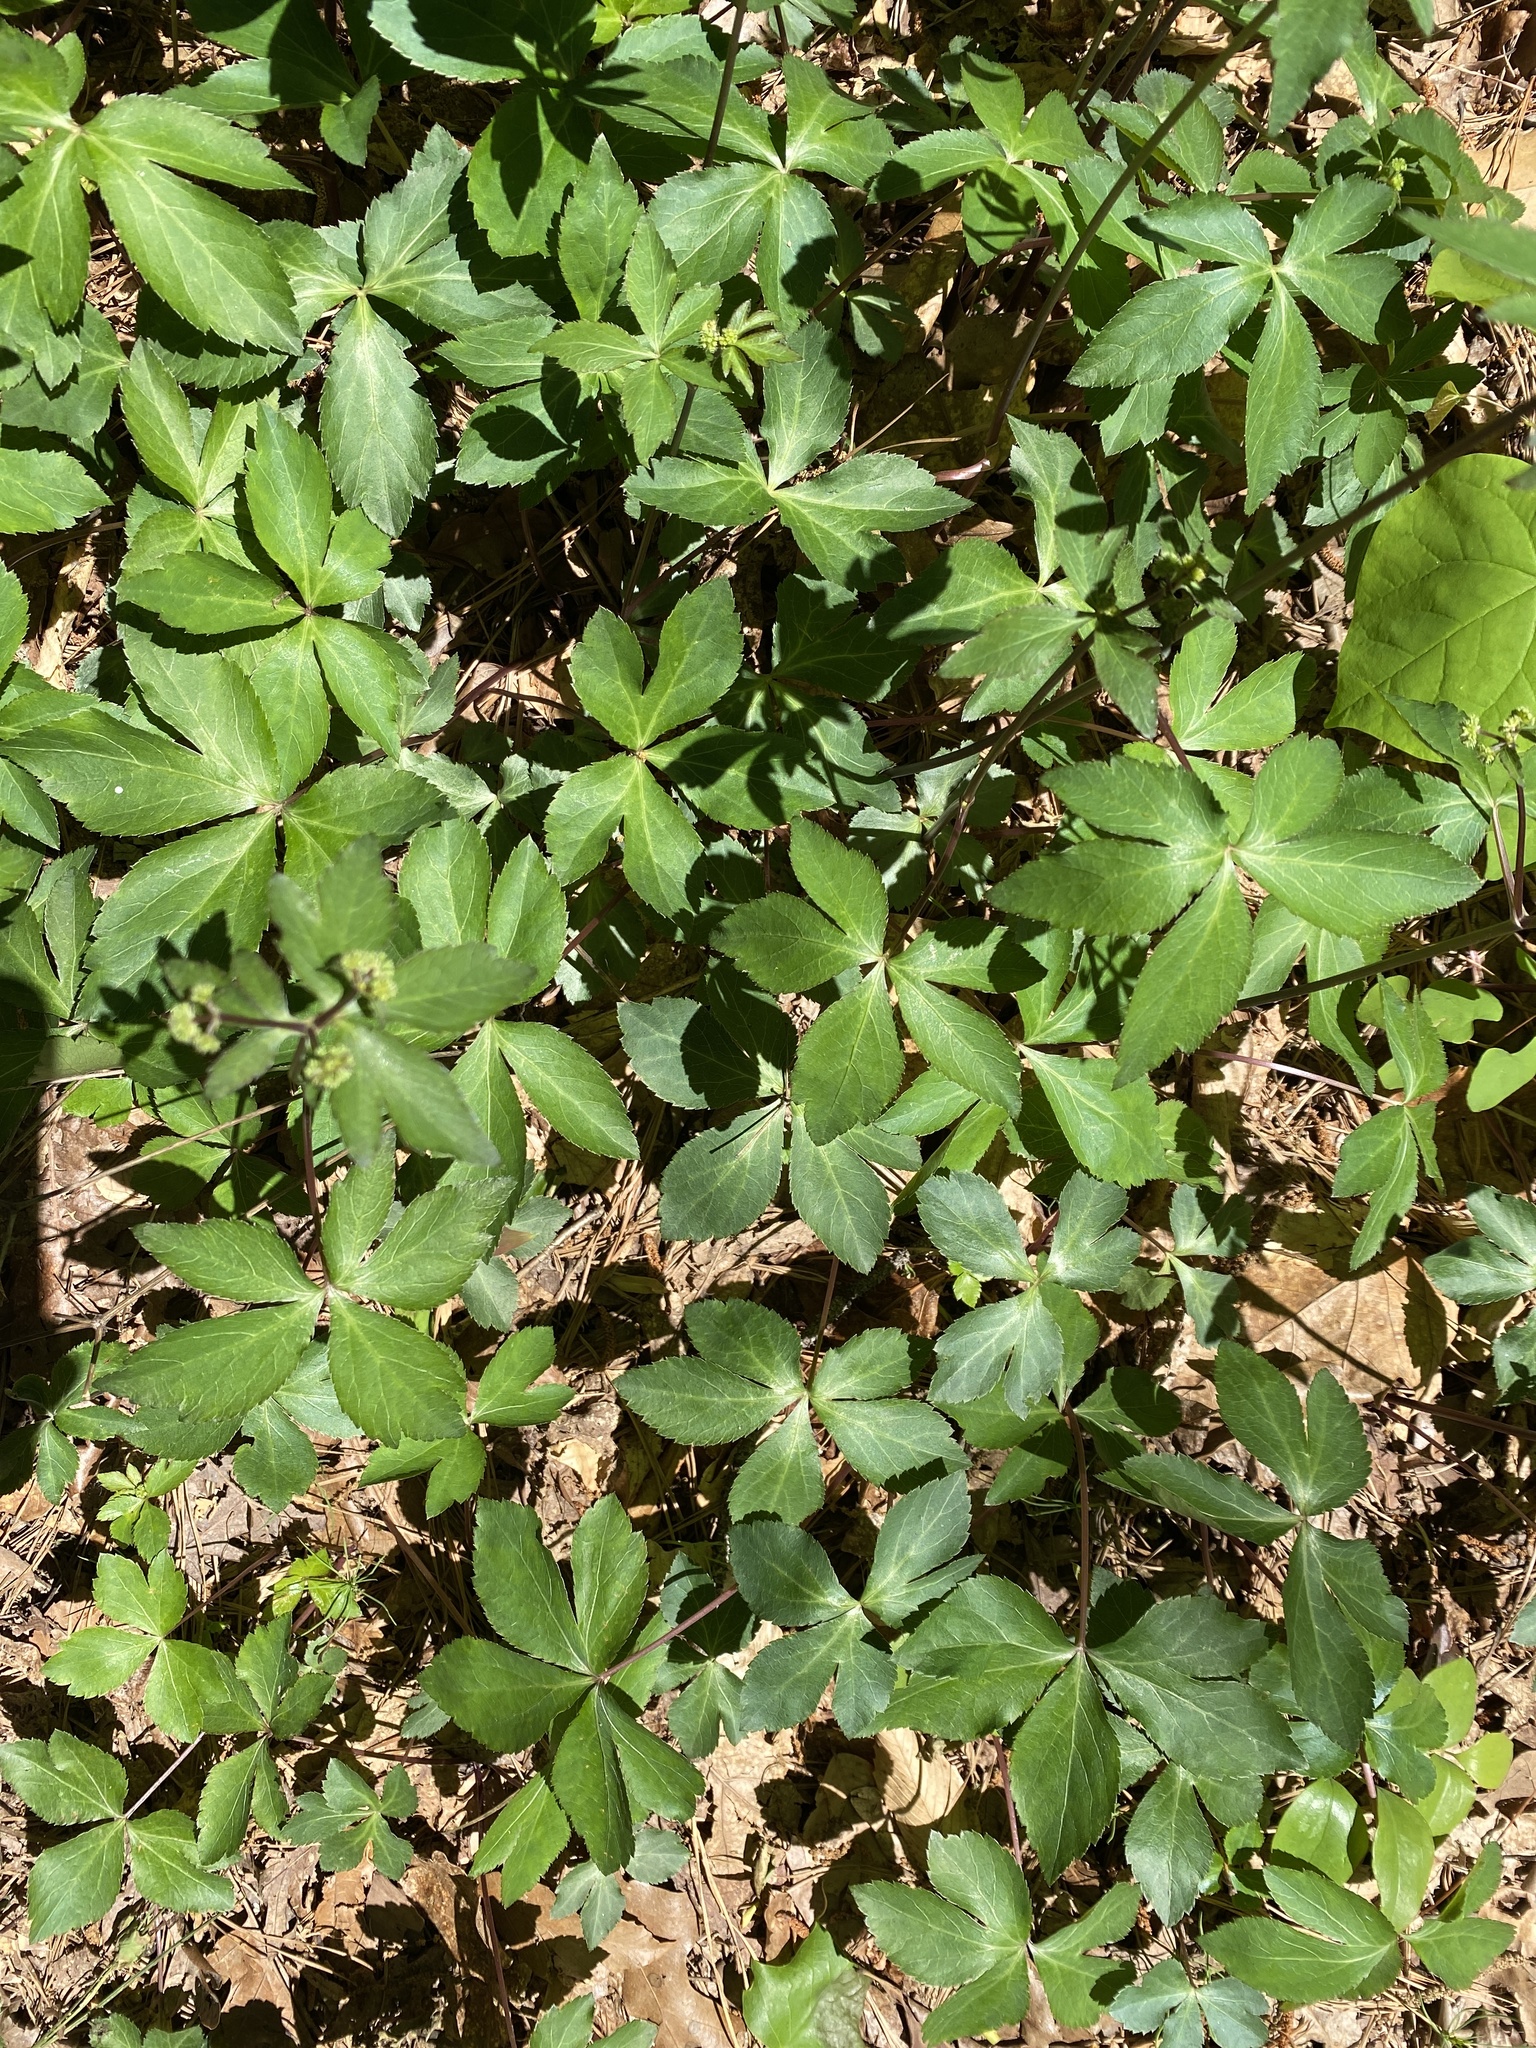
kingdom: Plantae
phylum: Tracheophyta
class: Magnoliopsida
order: Apiales
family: Apiaceae
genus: Sanicula
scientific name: Sanicula smallii
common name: Small's black snakeroot
